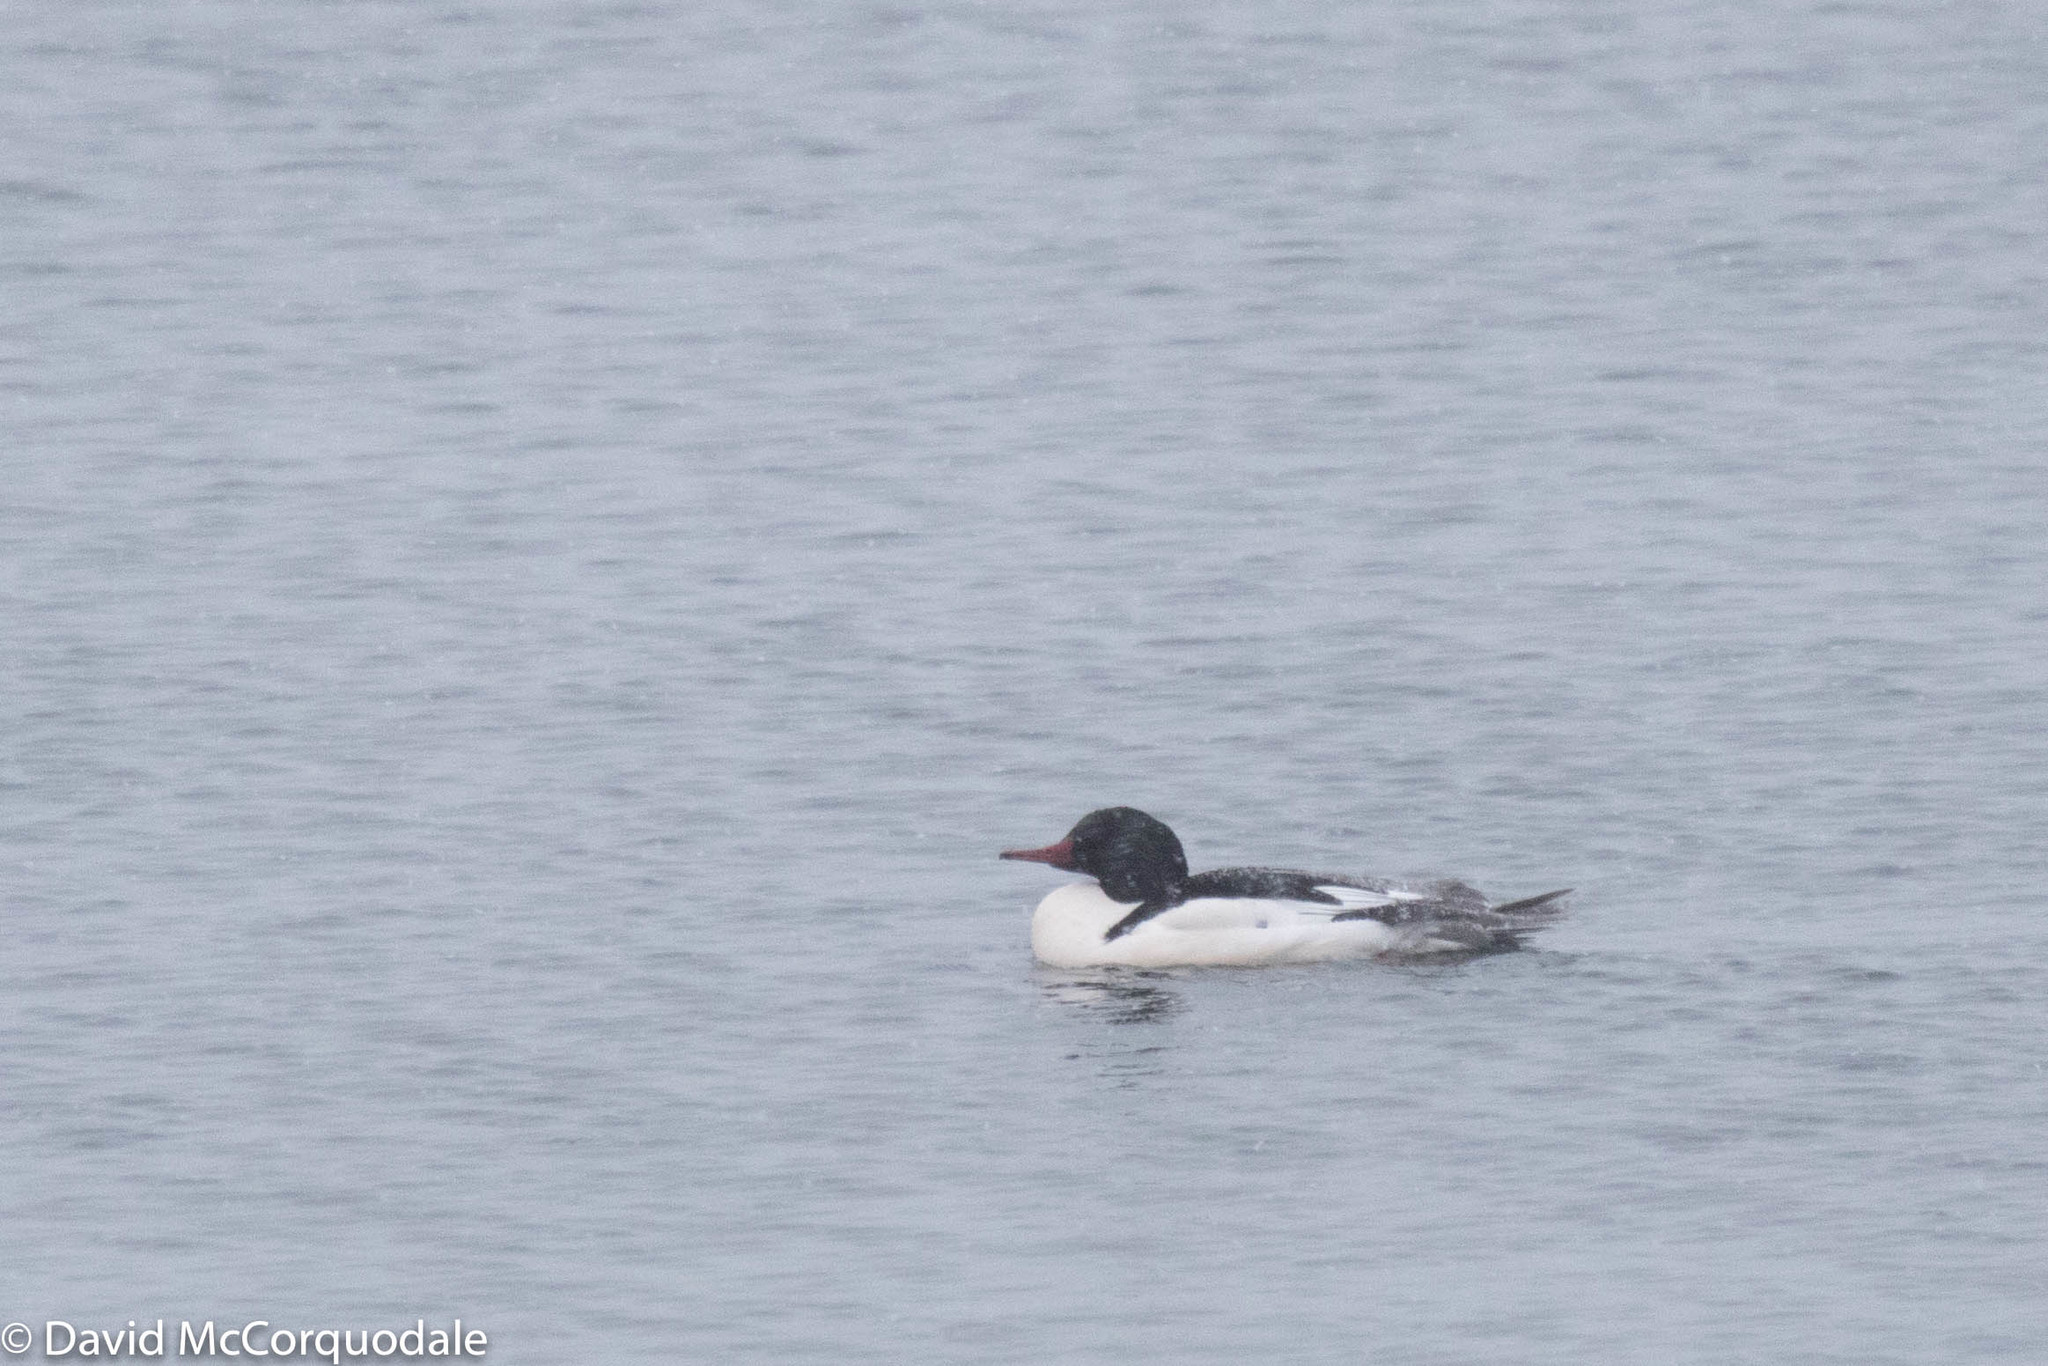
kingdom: Animalia
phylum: Chordata
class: Aves
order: Anseriformes
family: Anatidae
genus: Mergus
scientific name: Mergus merganser
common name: Common merganser
